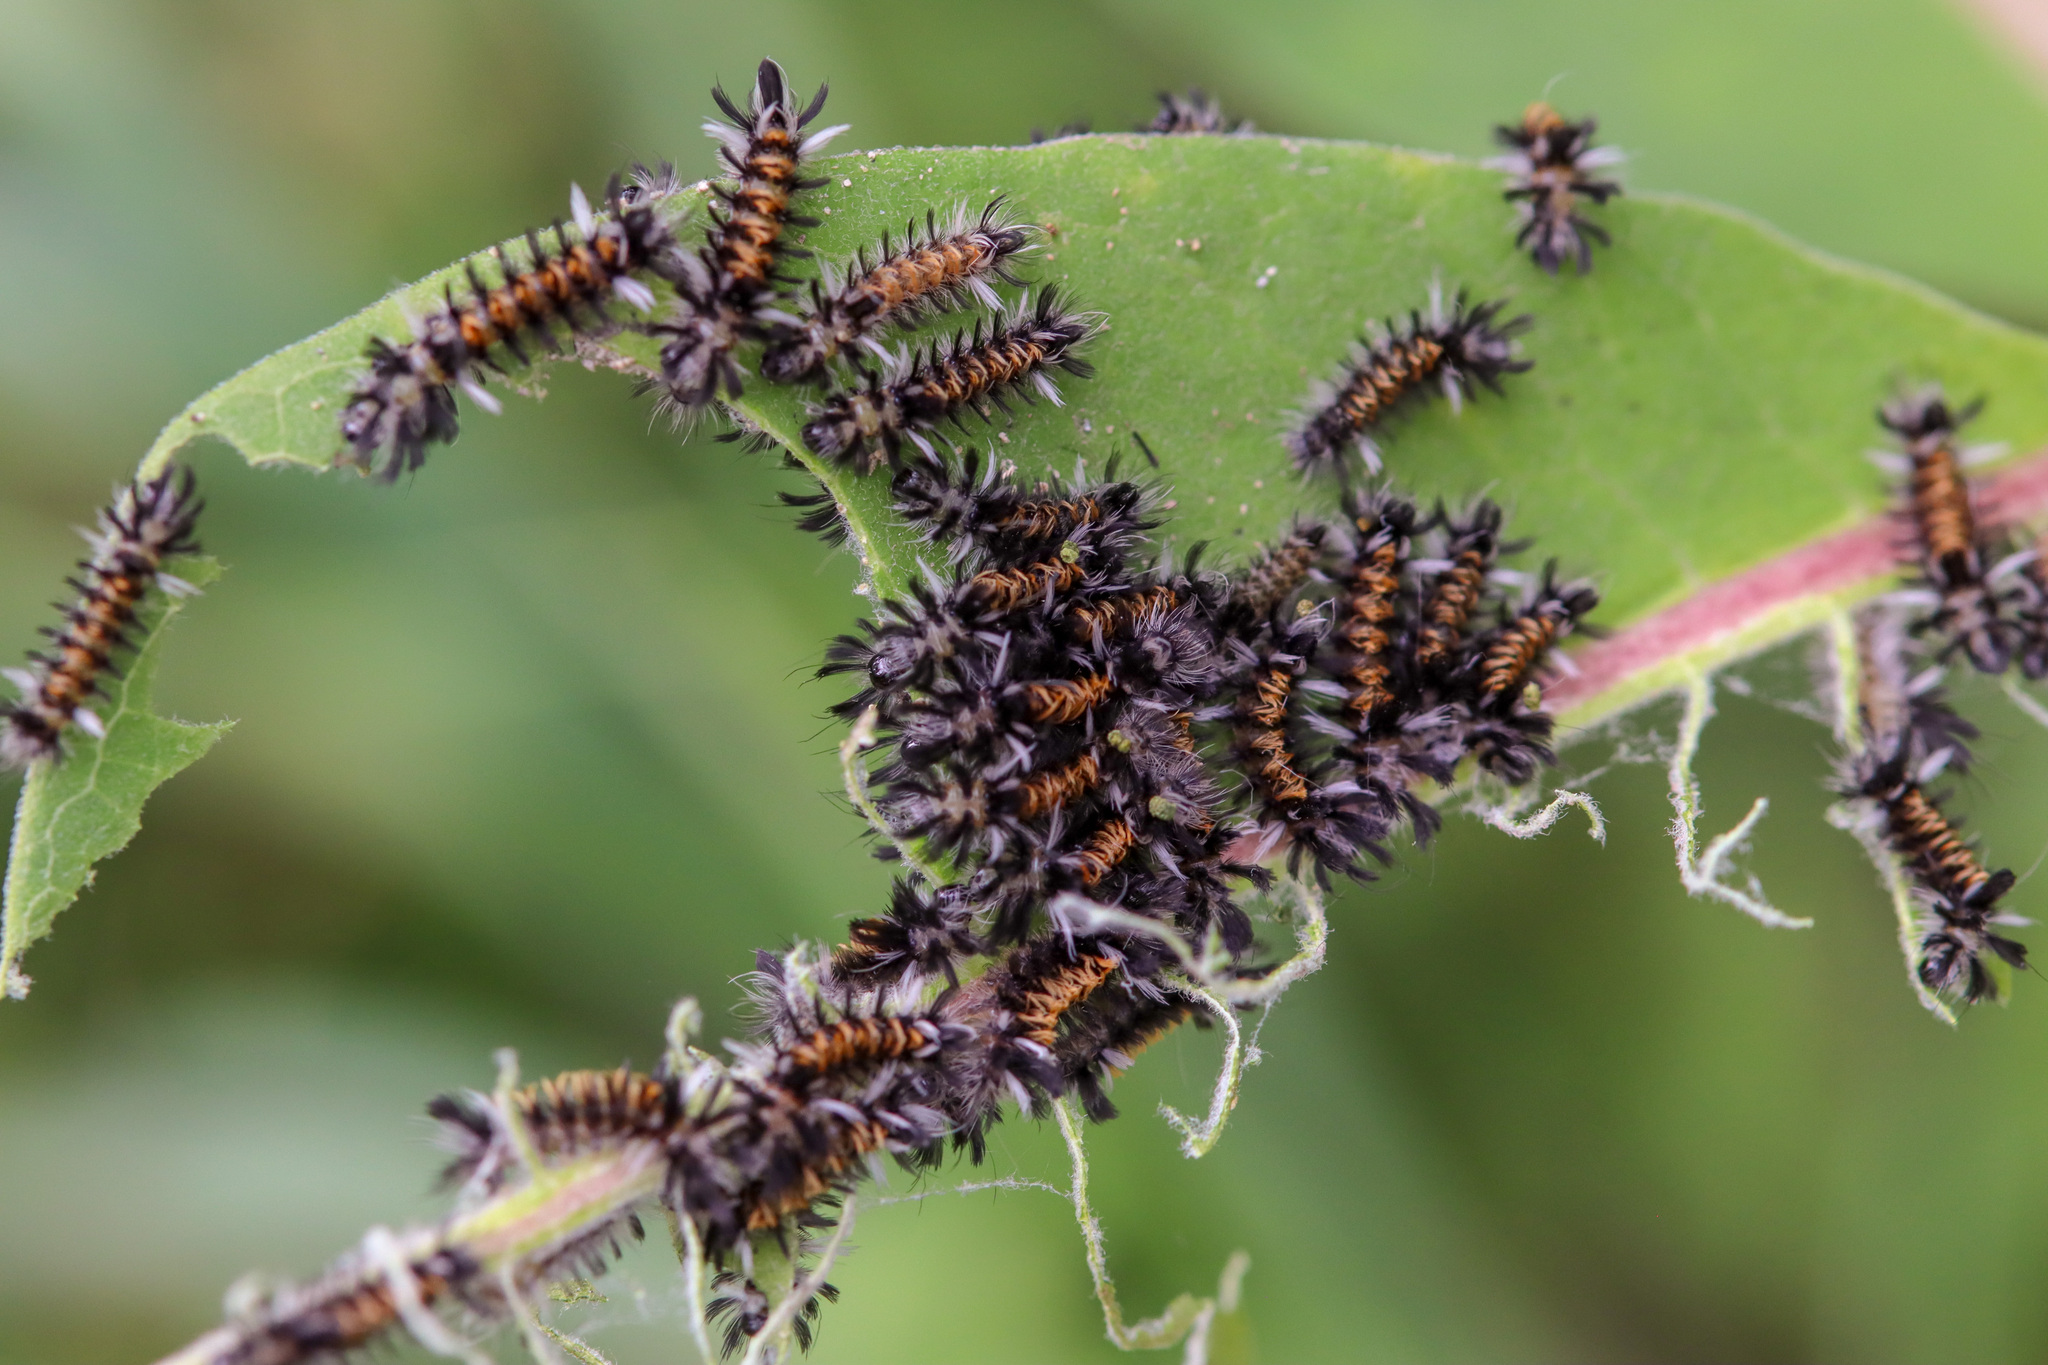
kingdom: Animalia
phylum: Arthropoda
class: Insecta
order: Lepidoptera
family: Erebidae
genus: Euchaetes
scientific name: Euchaetes egle
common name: Milkweed tussock moth
